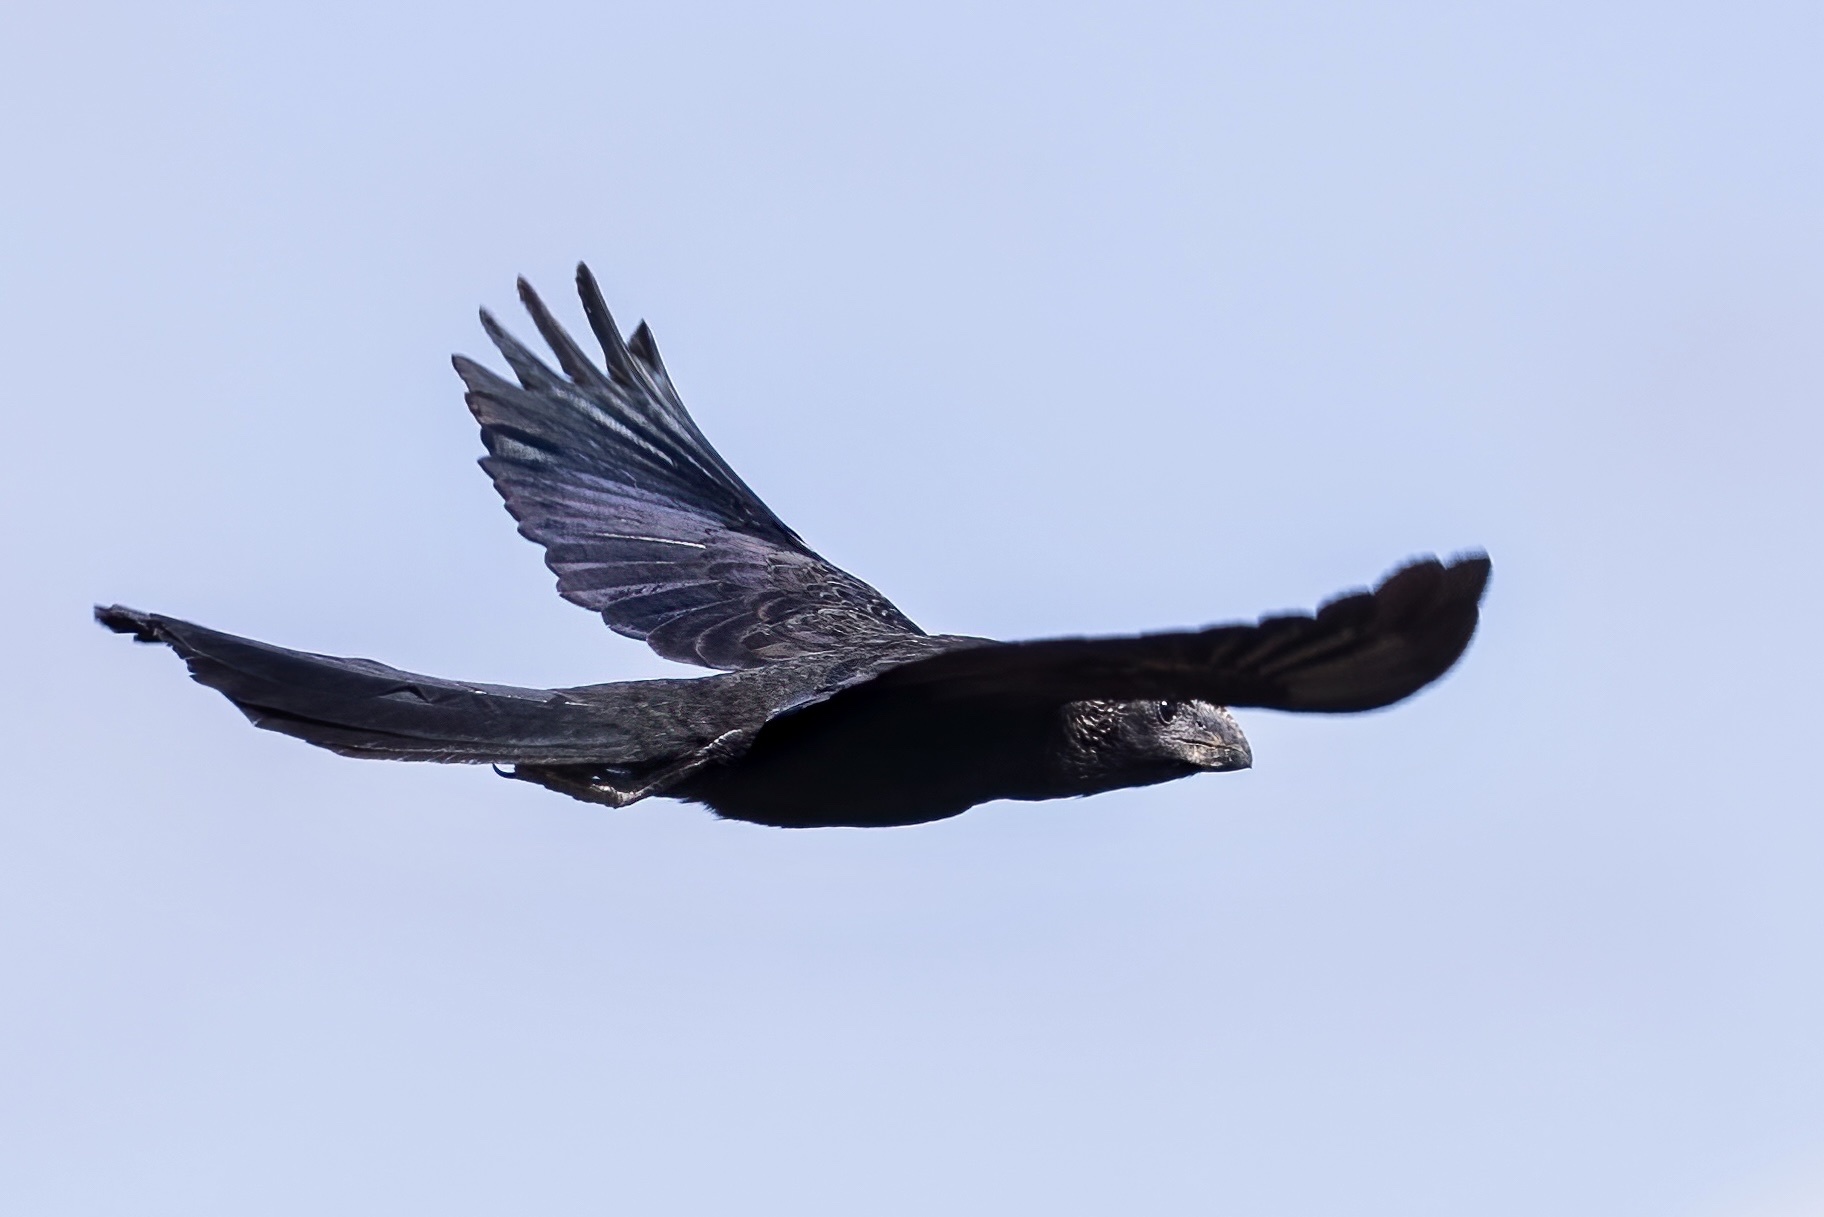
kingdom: Animalia
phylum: Chordata
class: Aves
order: Cuculiformes
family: Cuculidae
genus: Crotophaga
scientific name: Crotophaga ani
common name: Smooth-billed ani
